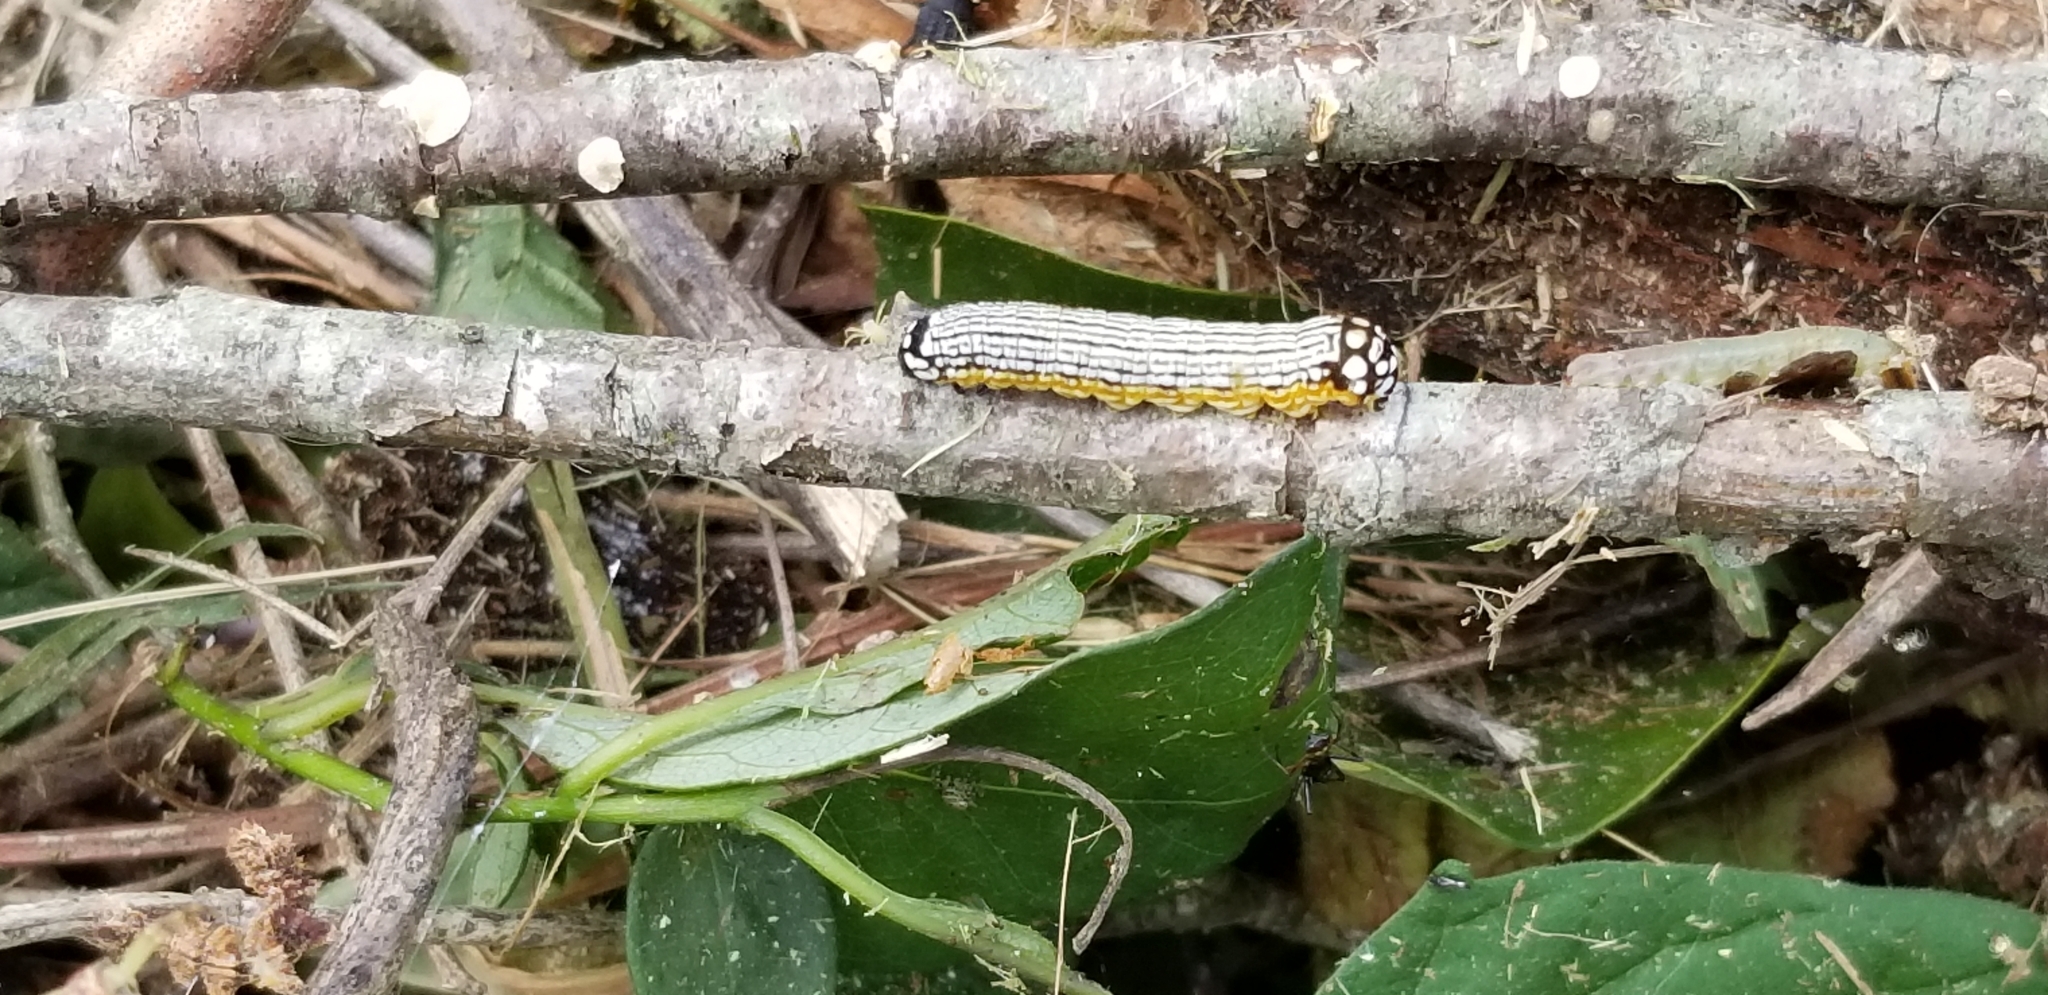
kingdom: Animalia
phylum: Arthropoda
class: Insecta
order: Lepidoptera
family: Noctuidae
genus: Phosphila
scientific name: Phosphila turbulenta
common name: Turbulent phosphila moth
